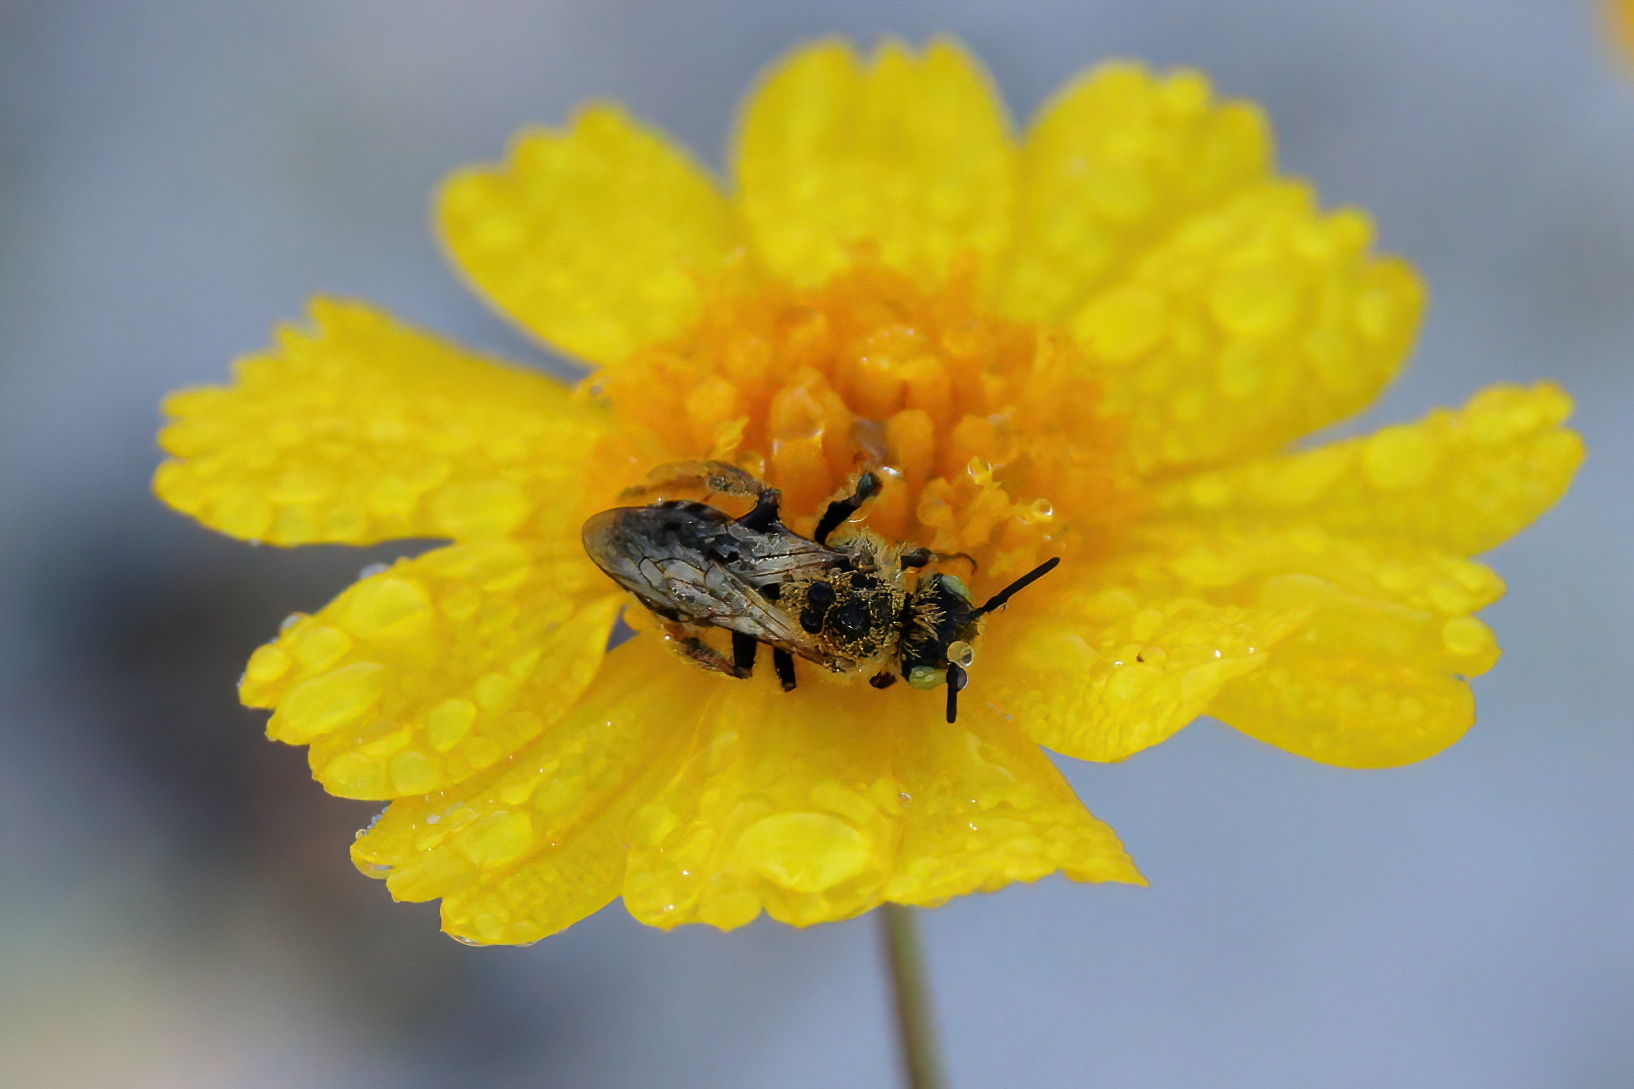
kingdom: Animalia
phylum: Arthropoda
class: Insecta
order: Hymenoptera
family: Melittidae
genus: Hesperapis
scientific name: Hesperapis oraria
